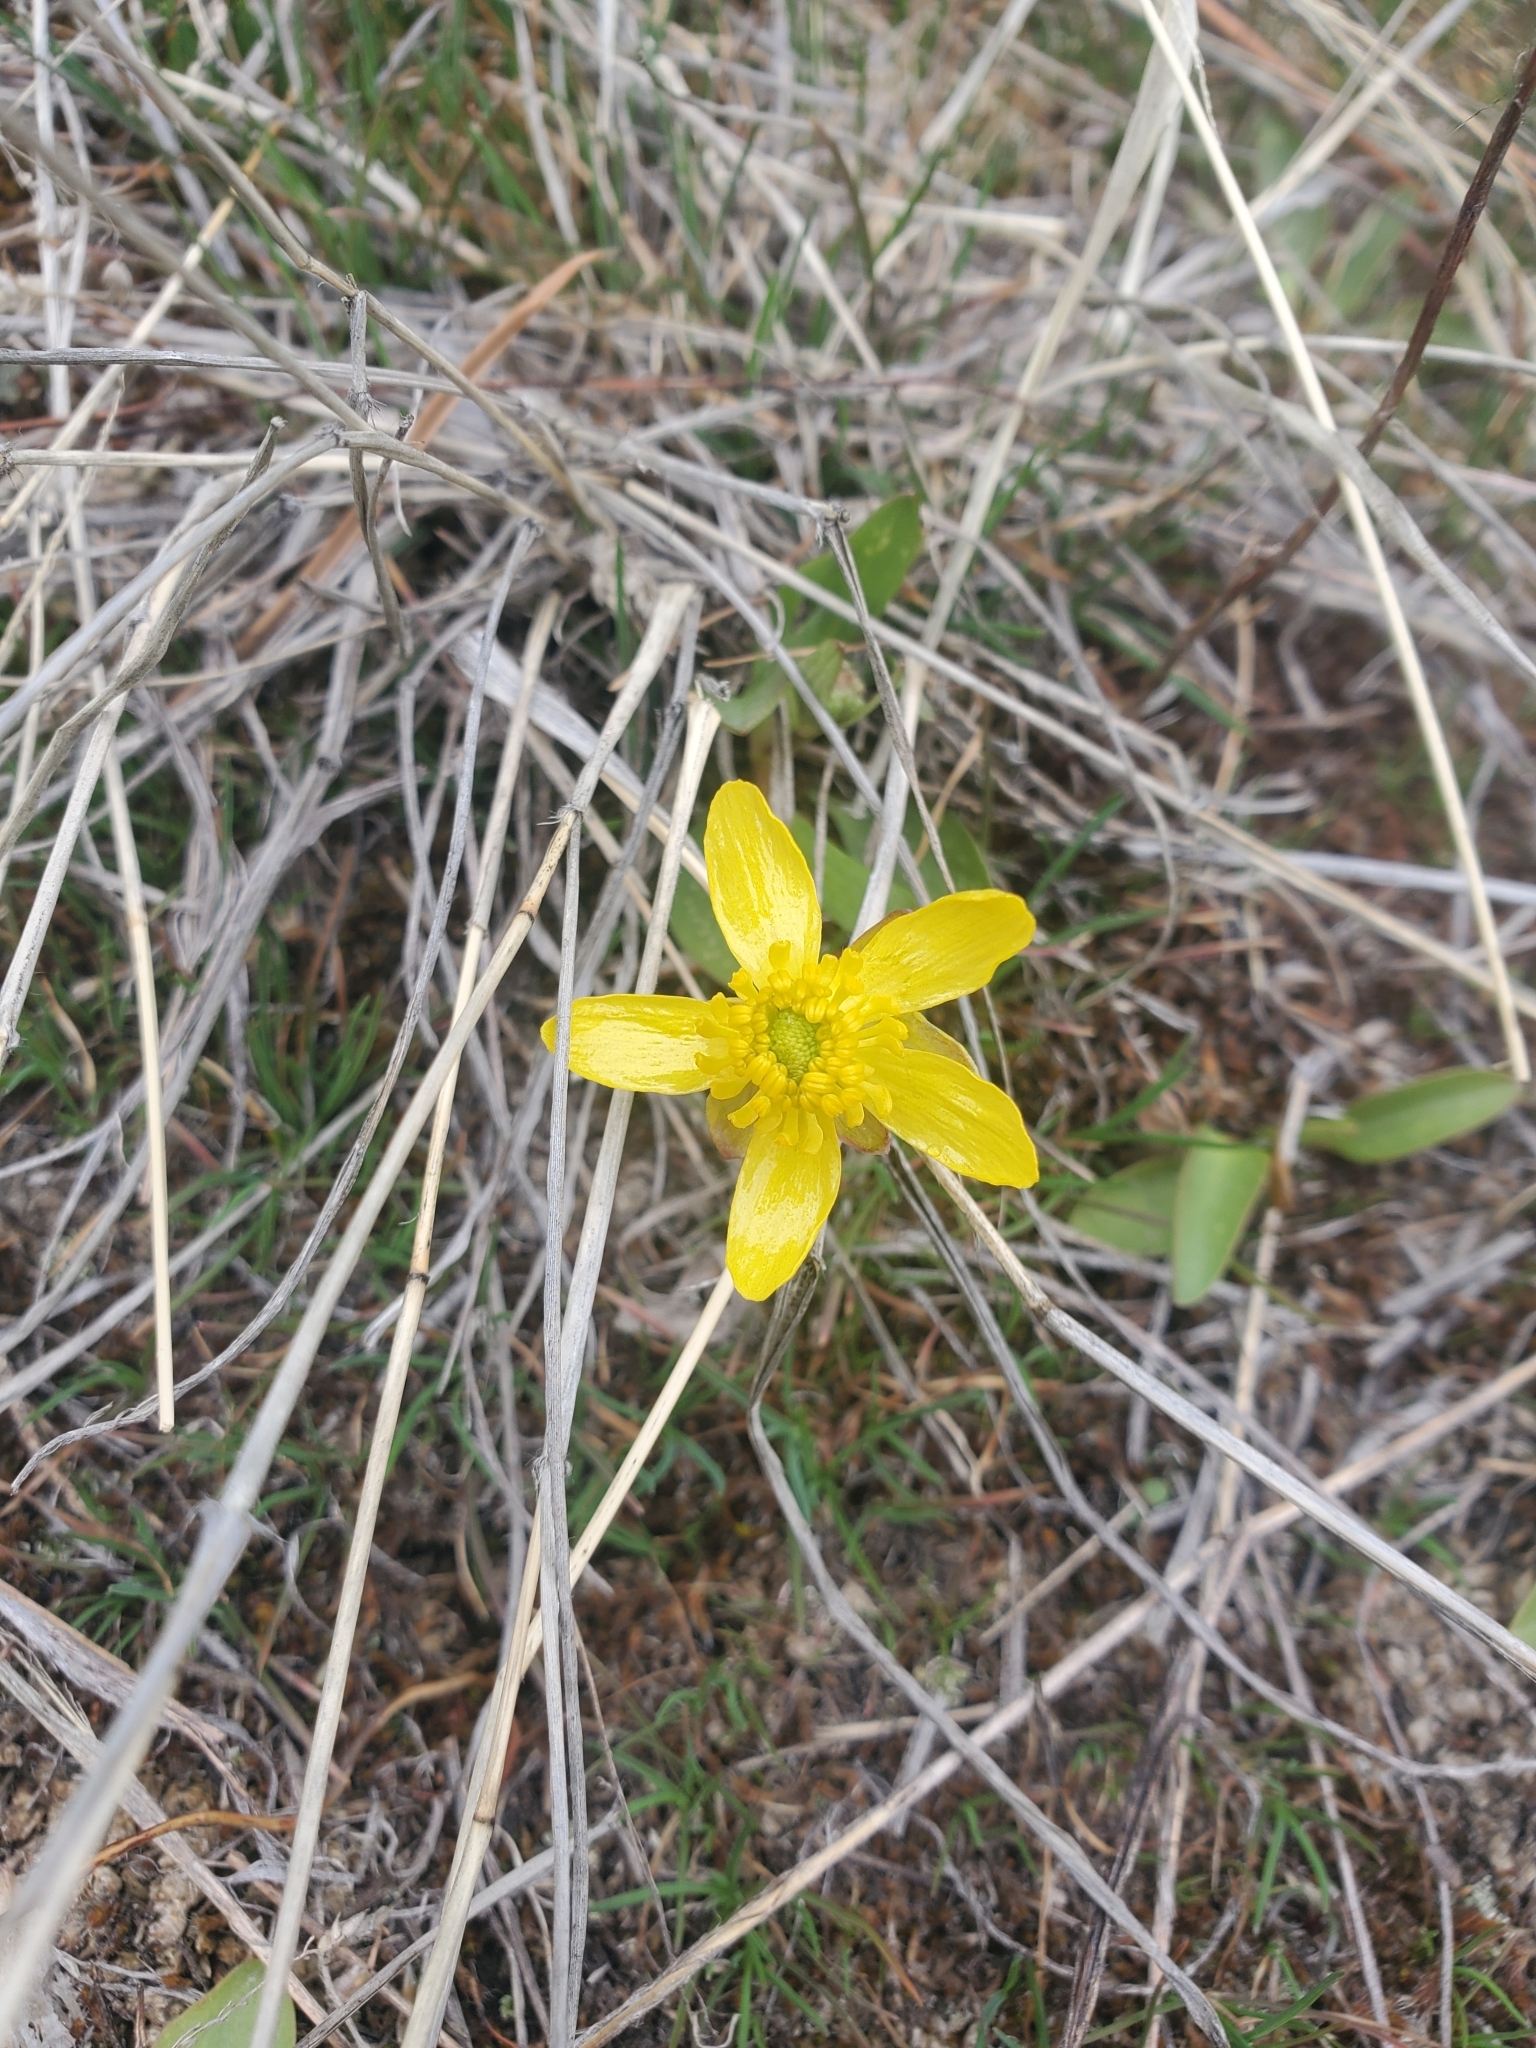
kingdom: Plantae
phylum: Tracheophyta
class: Magnoliopsida
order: Ranunculales
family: Ranunculaceae
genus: Ranunculus
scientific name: Ranunculus glaberrimus
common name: Sagebrush buttercup
